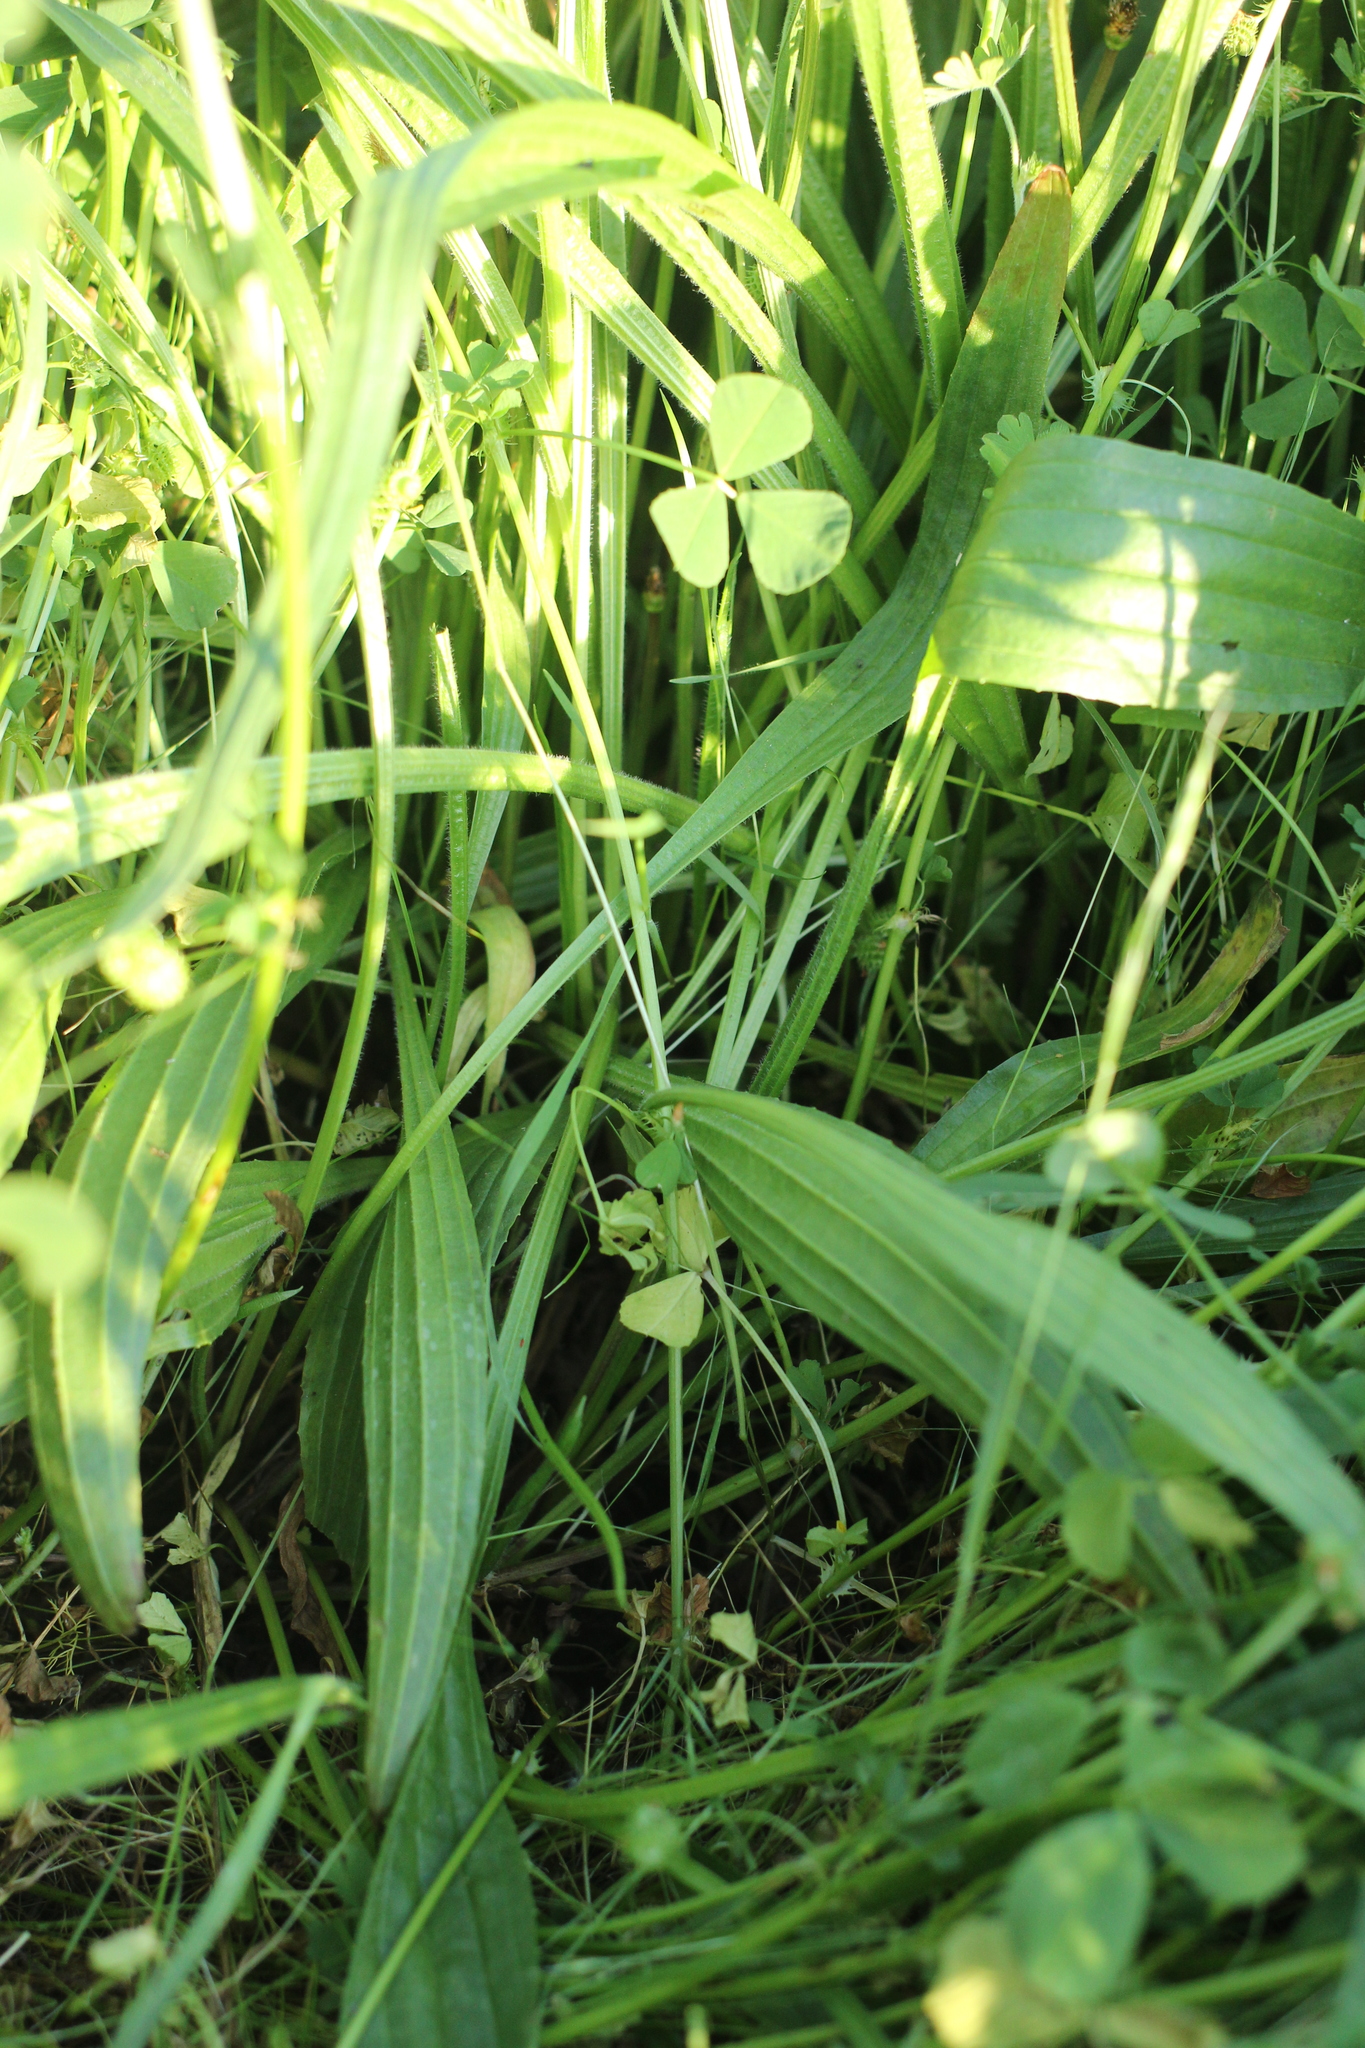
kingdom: Plantae
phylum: Tracheophyta
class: Magnoliopsida
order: Lamiales
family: Plantaginaceae
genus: Plantago
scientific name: Plantago lanceolata
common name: Ribwort plantain
